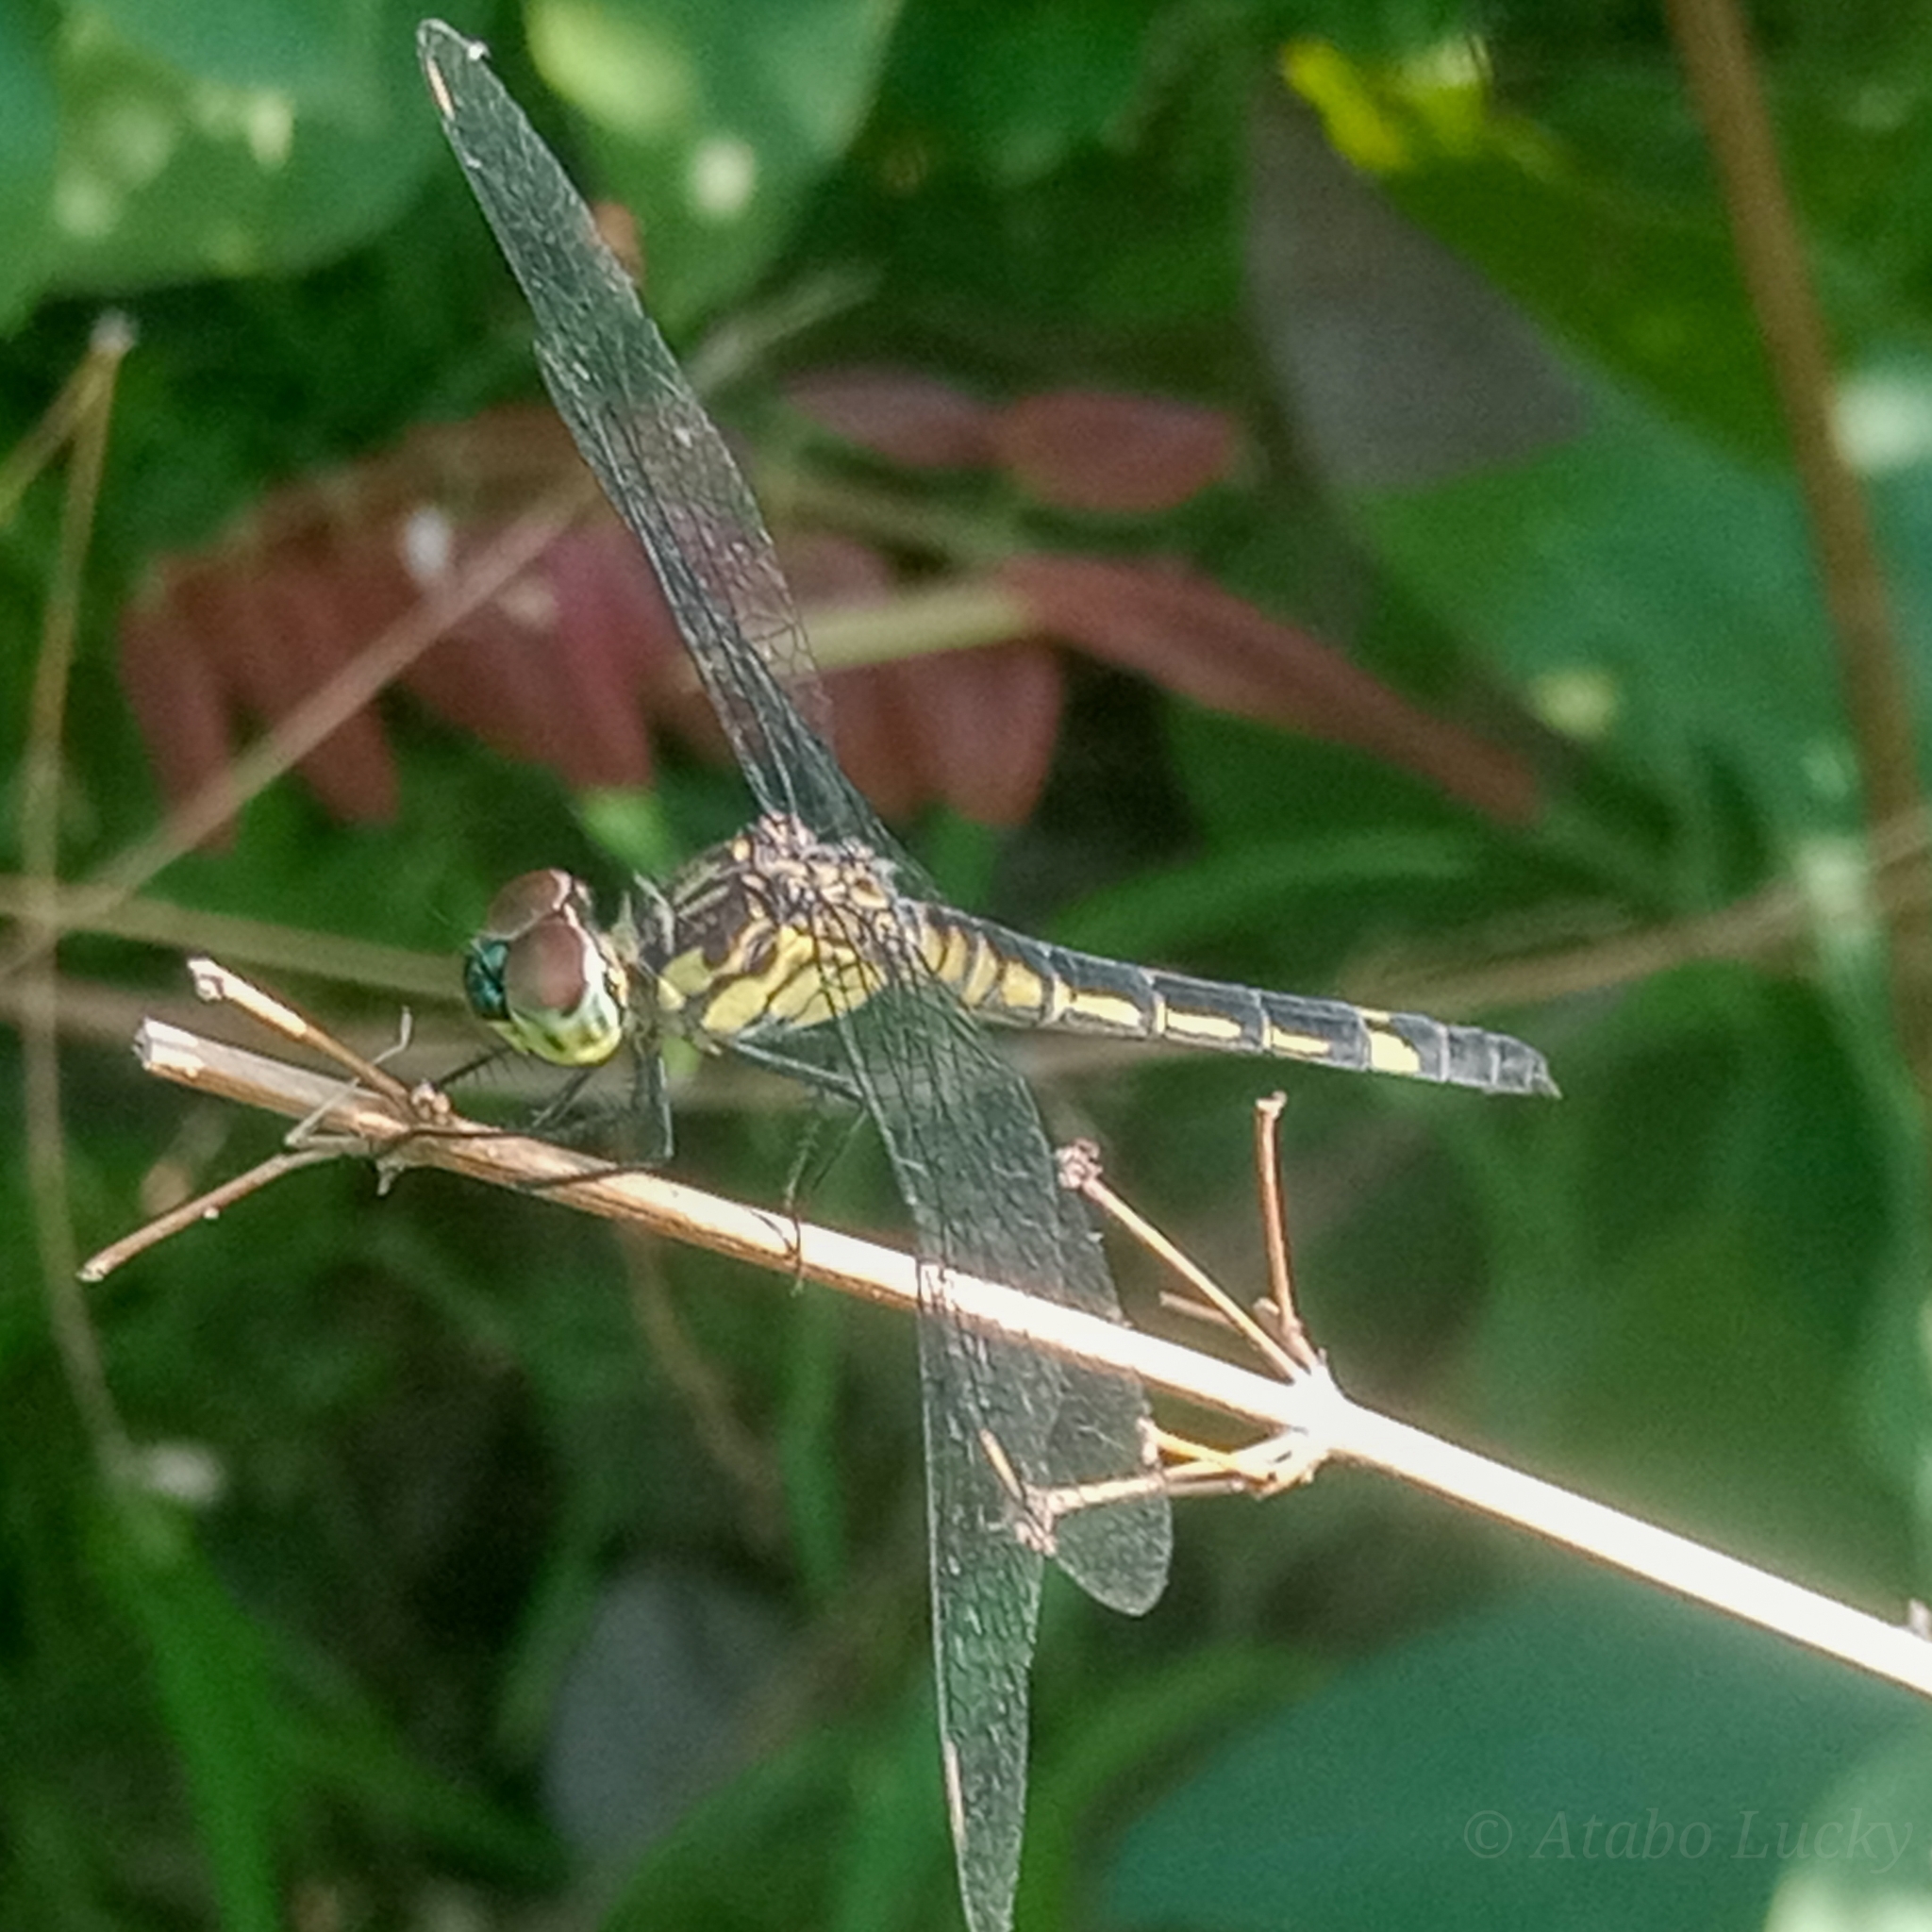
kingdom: Animalia
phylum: Arthropoda
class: Insecta
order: Odonata
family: Libellulidae
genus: Chalcostephia
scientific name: Chalcostephia flavifrons
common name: Inspector
